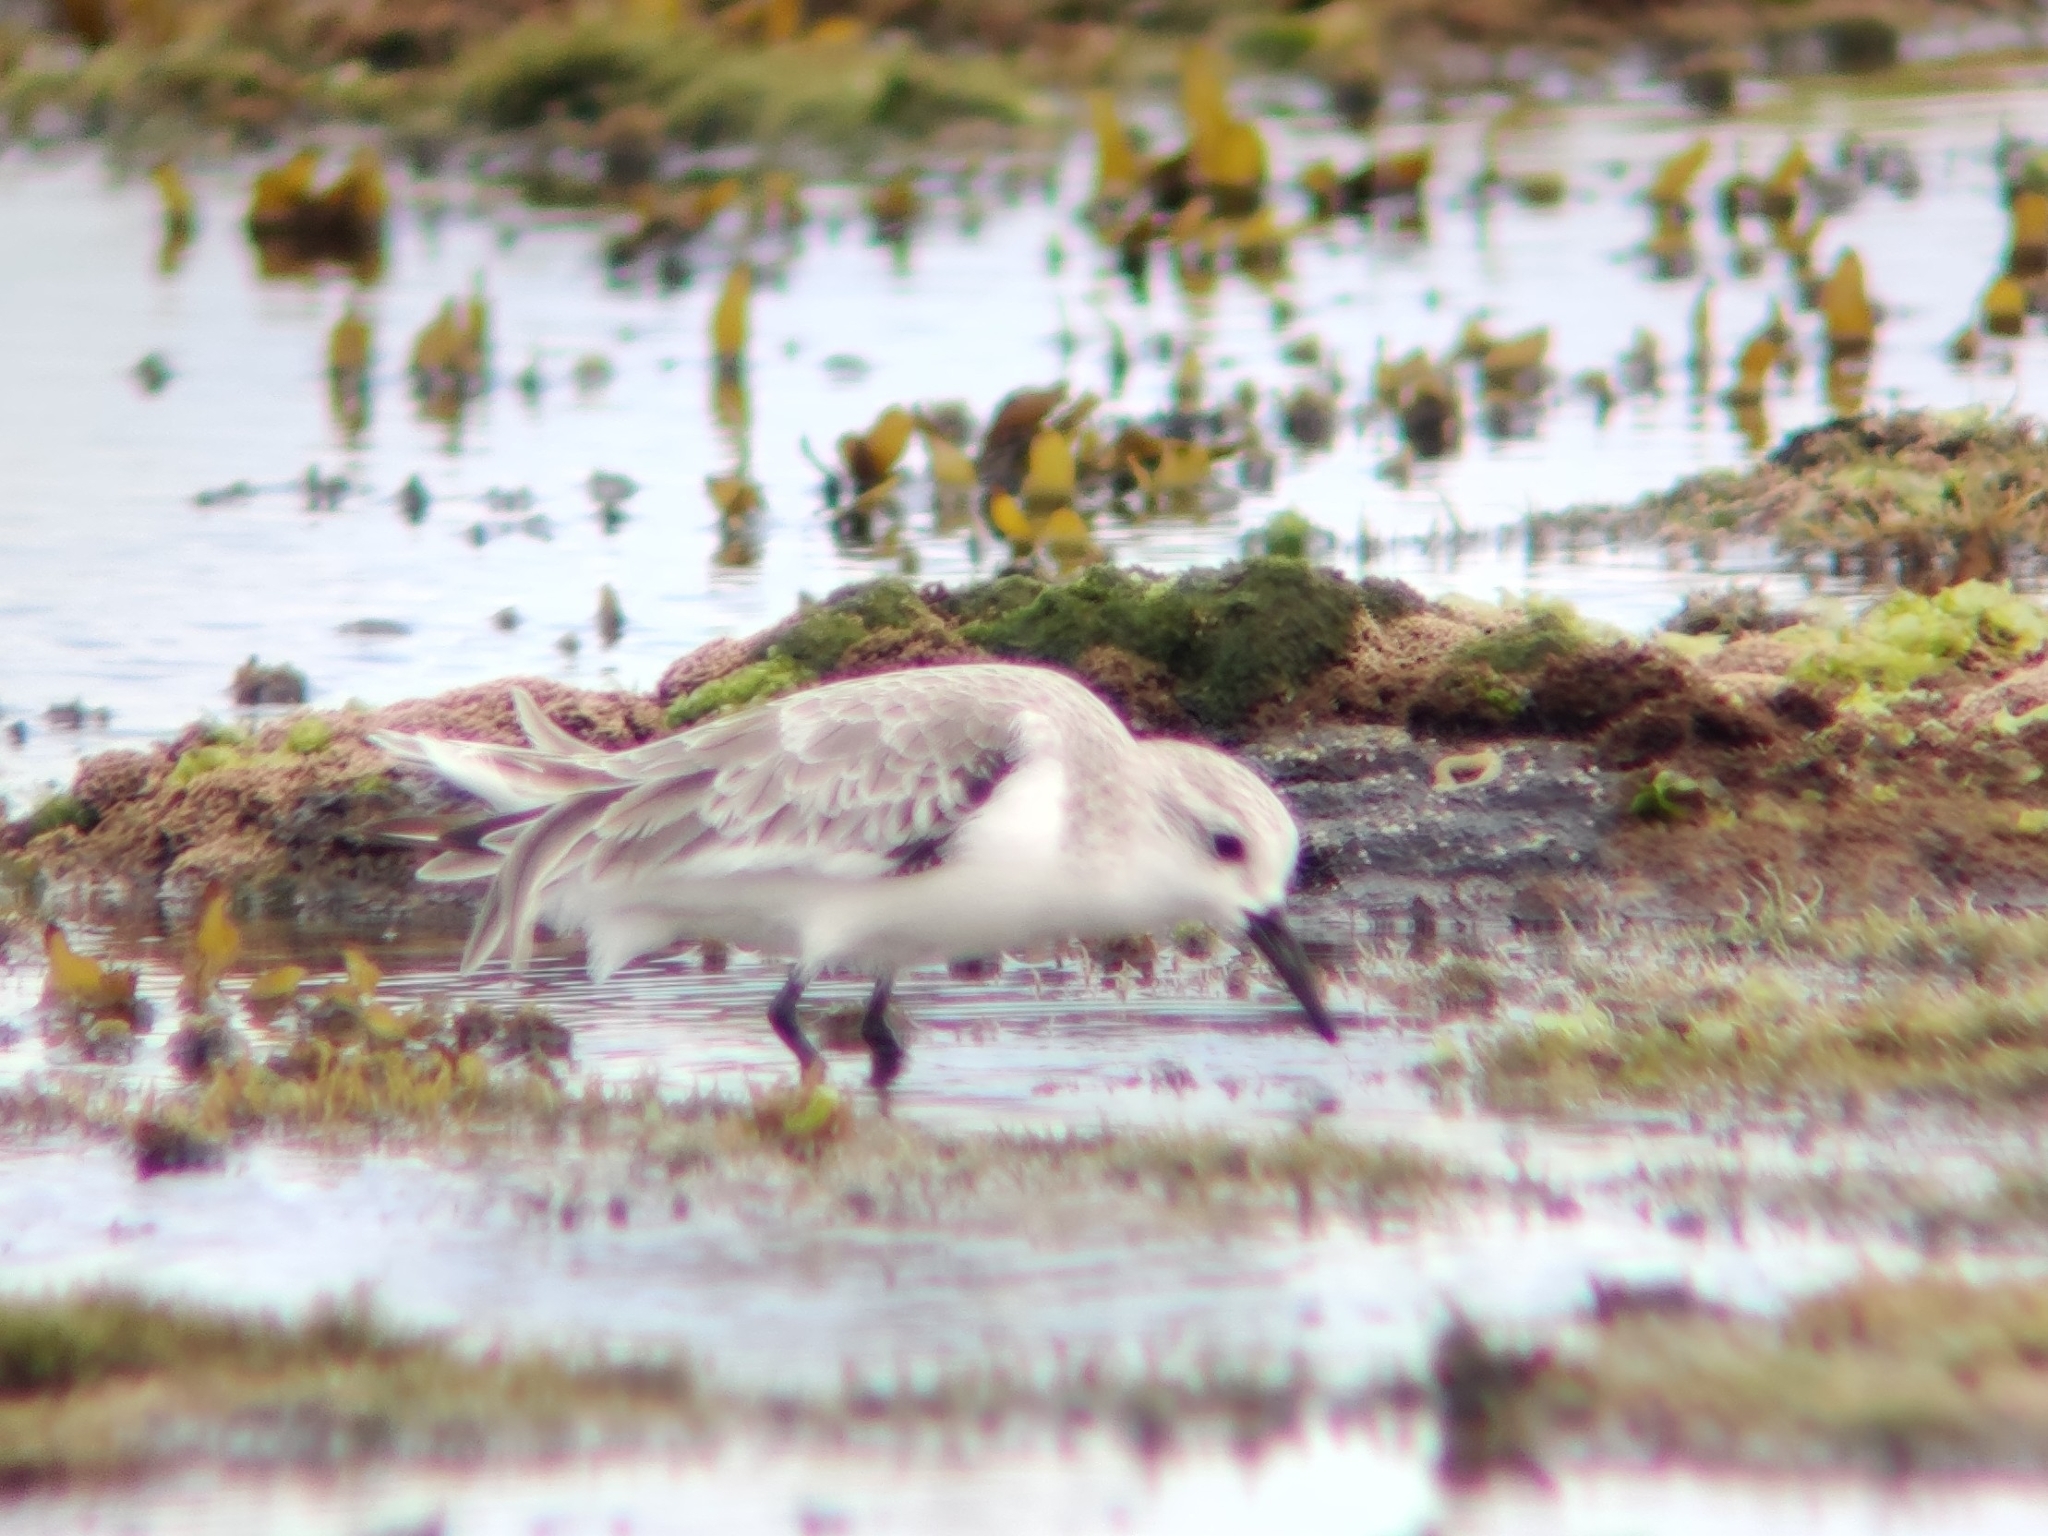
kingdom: Animalia
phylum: Chordata
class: Aves
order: Charadriiformes
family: Scolopacidae
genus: Calidris
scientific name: Calidris alba
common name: Sanderling
